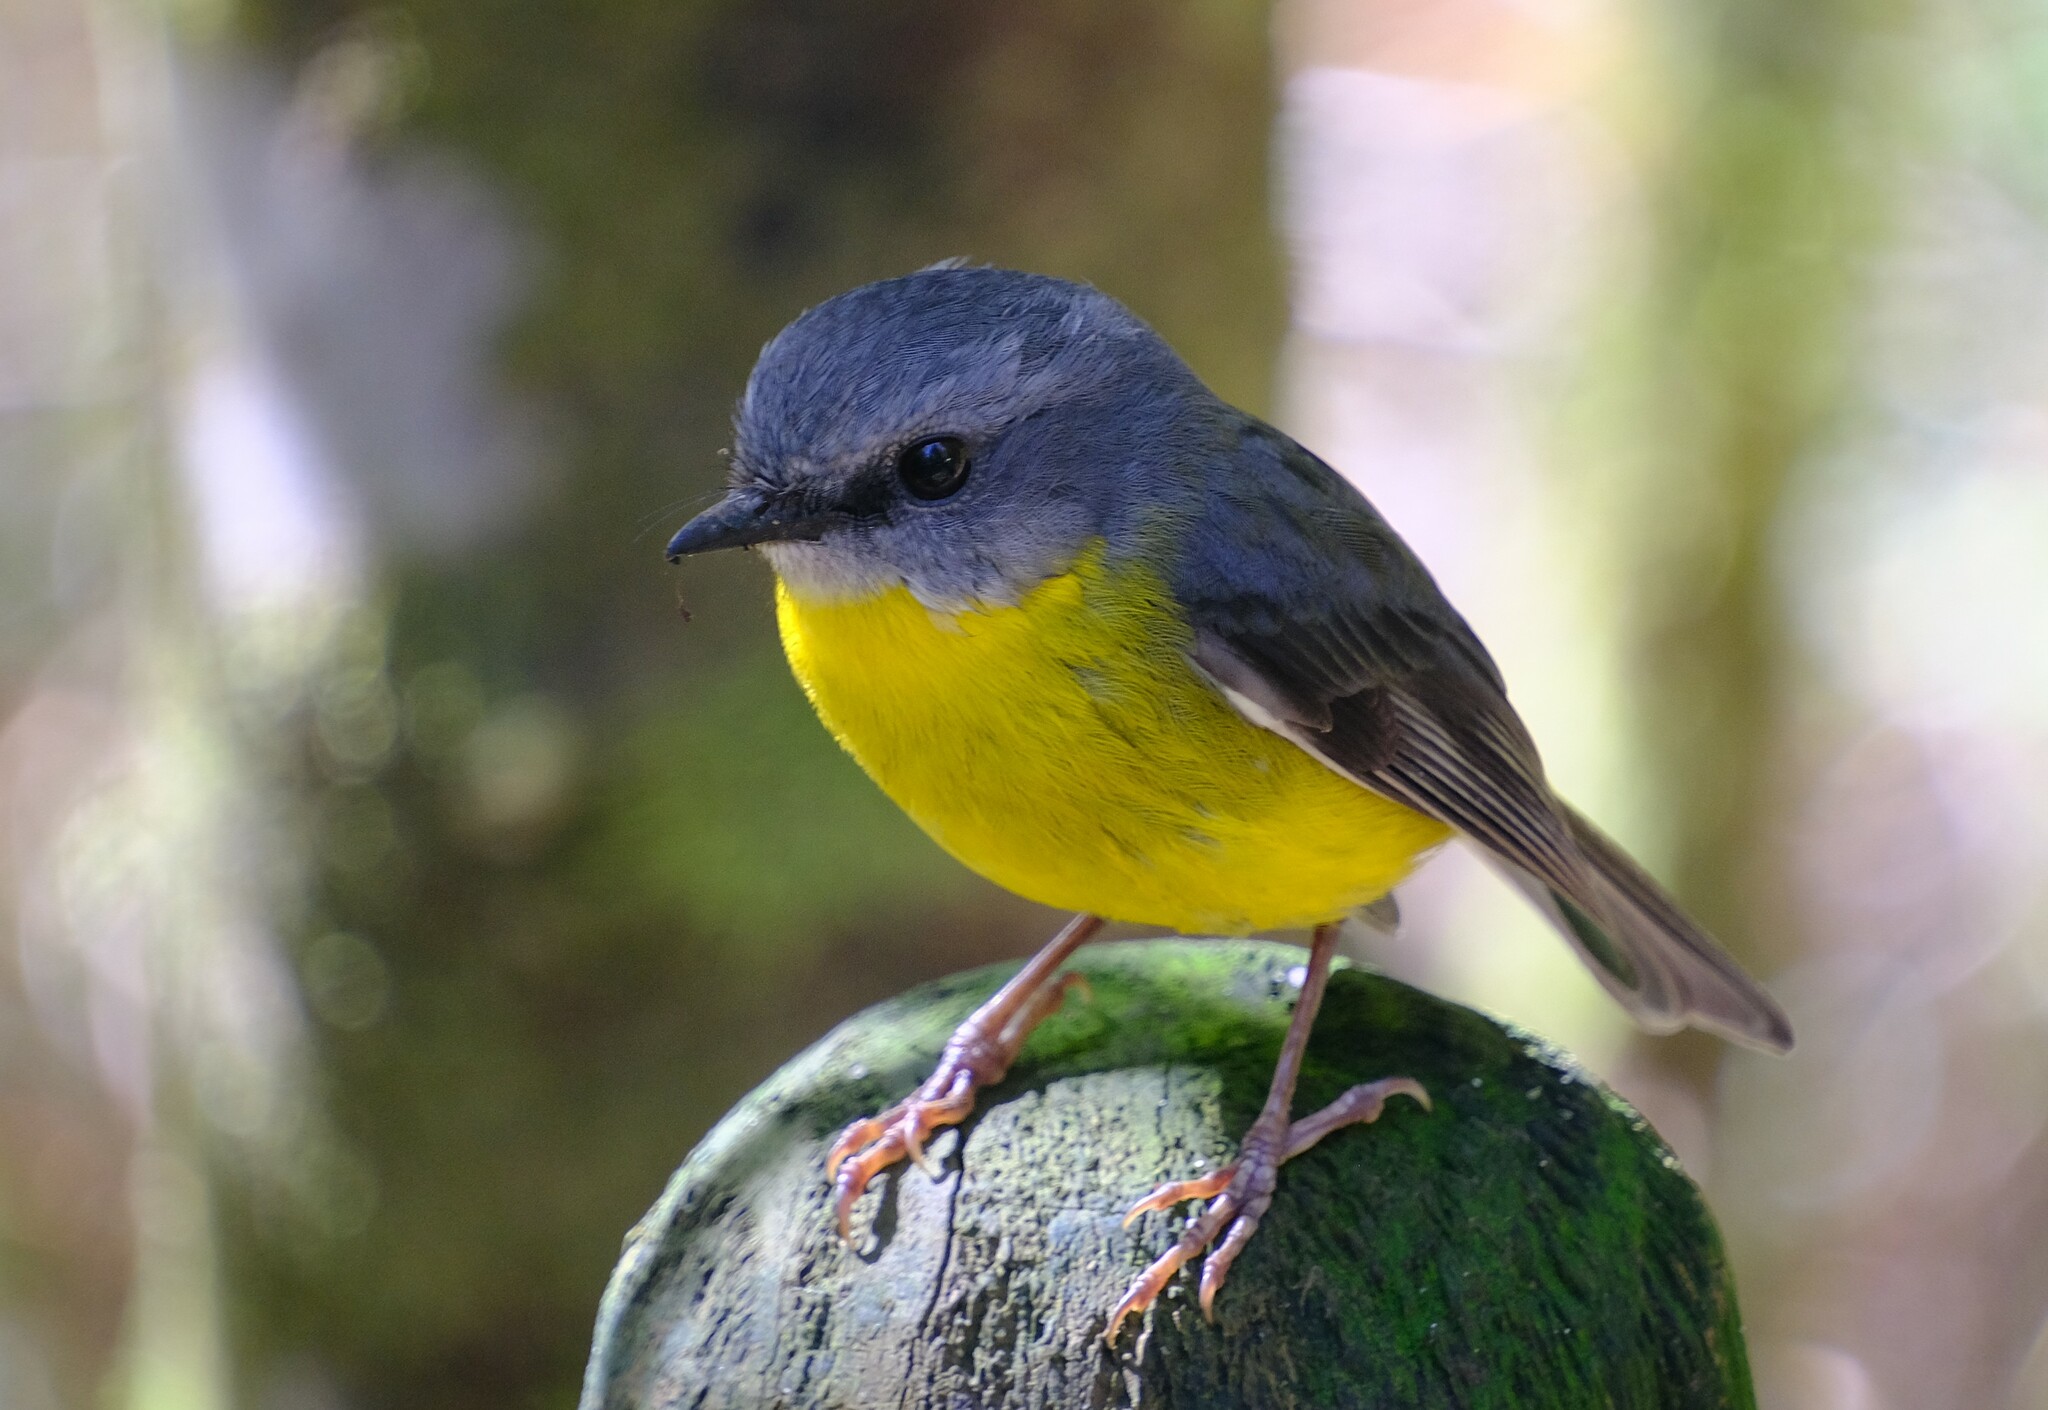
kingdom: Animalia
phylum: Chordata
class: Aves
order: Passeriformes
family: Petroicidae
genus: Eopsaltria
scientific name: Eopsaltria australis
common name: Eastern yellow robin
